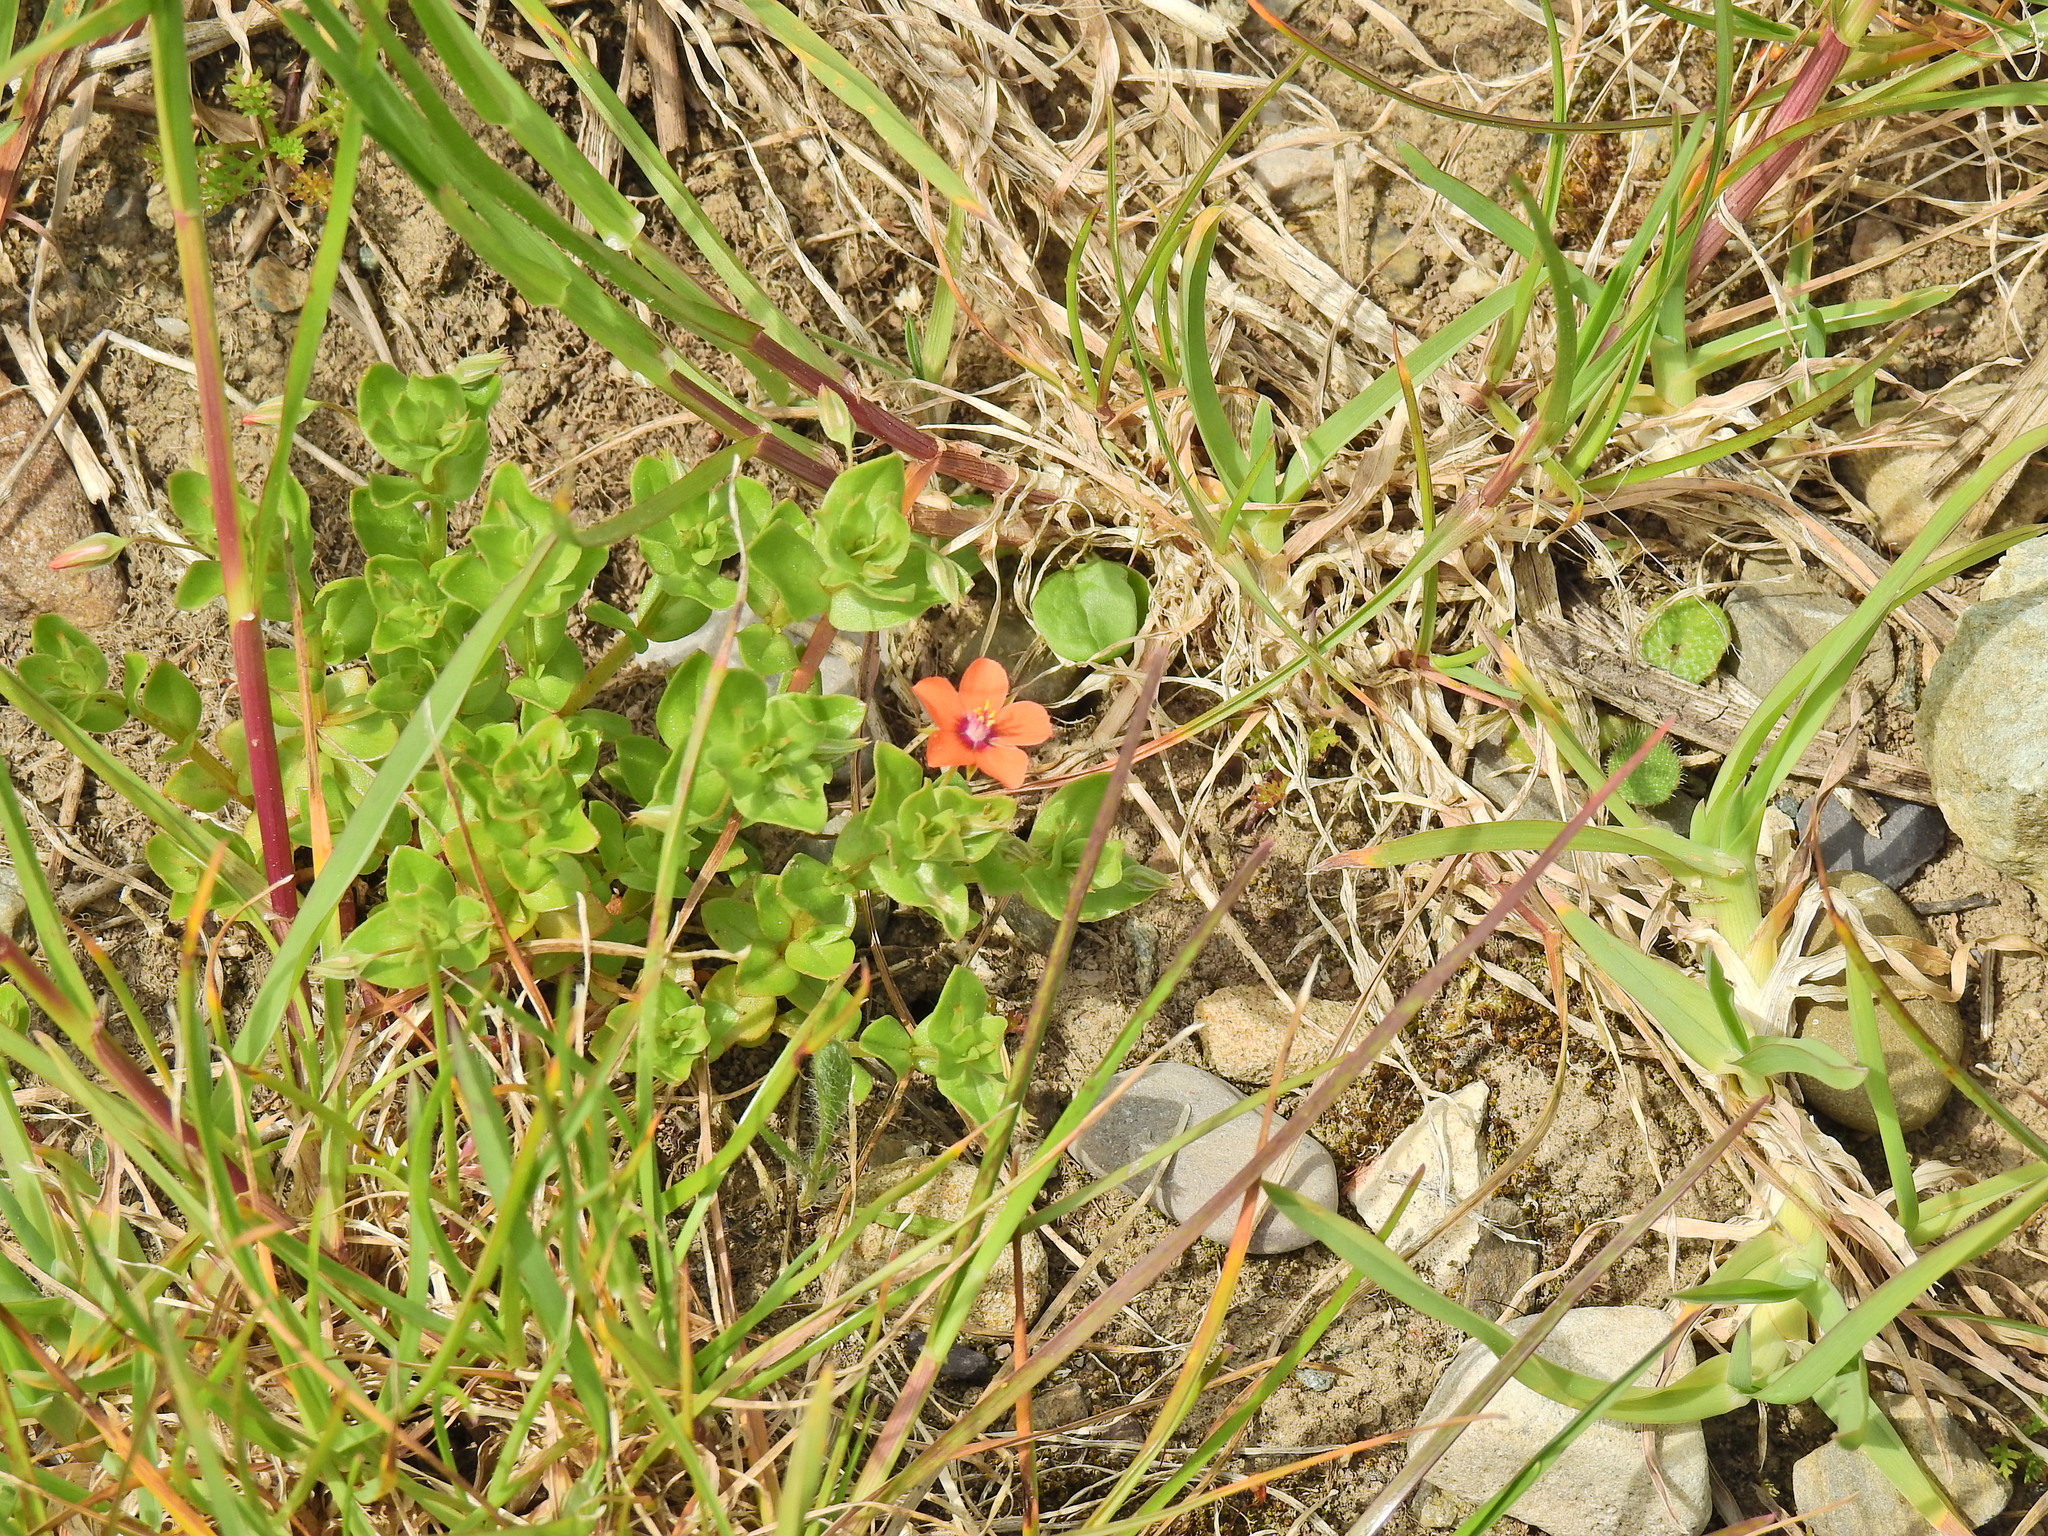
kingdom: Plantae
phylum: Tracheophyta
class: Magnoliopsida
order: Ericales
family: Primulaceae
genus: Lysimachia
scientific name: Lysimachia arvensis
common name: Scarlet pimpernel
